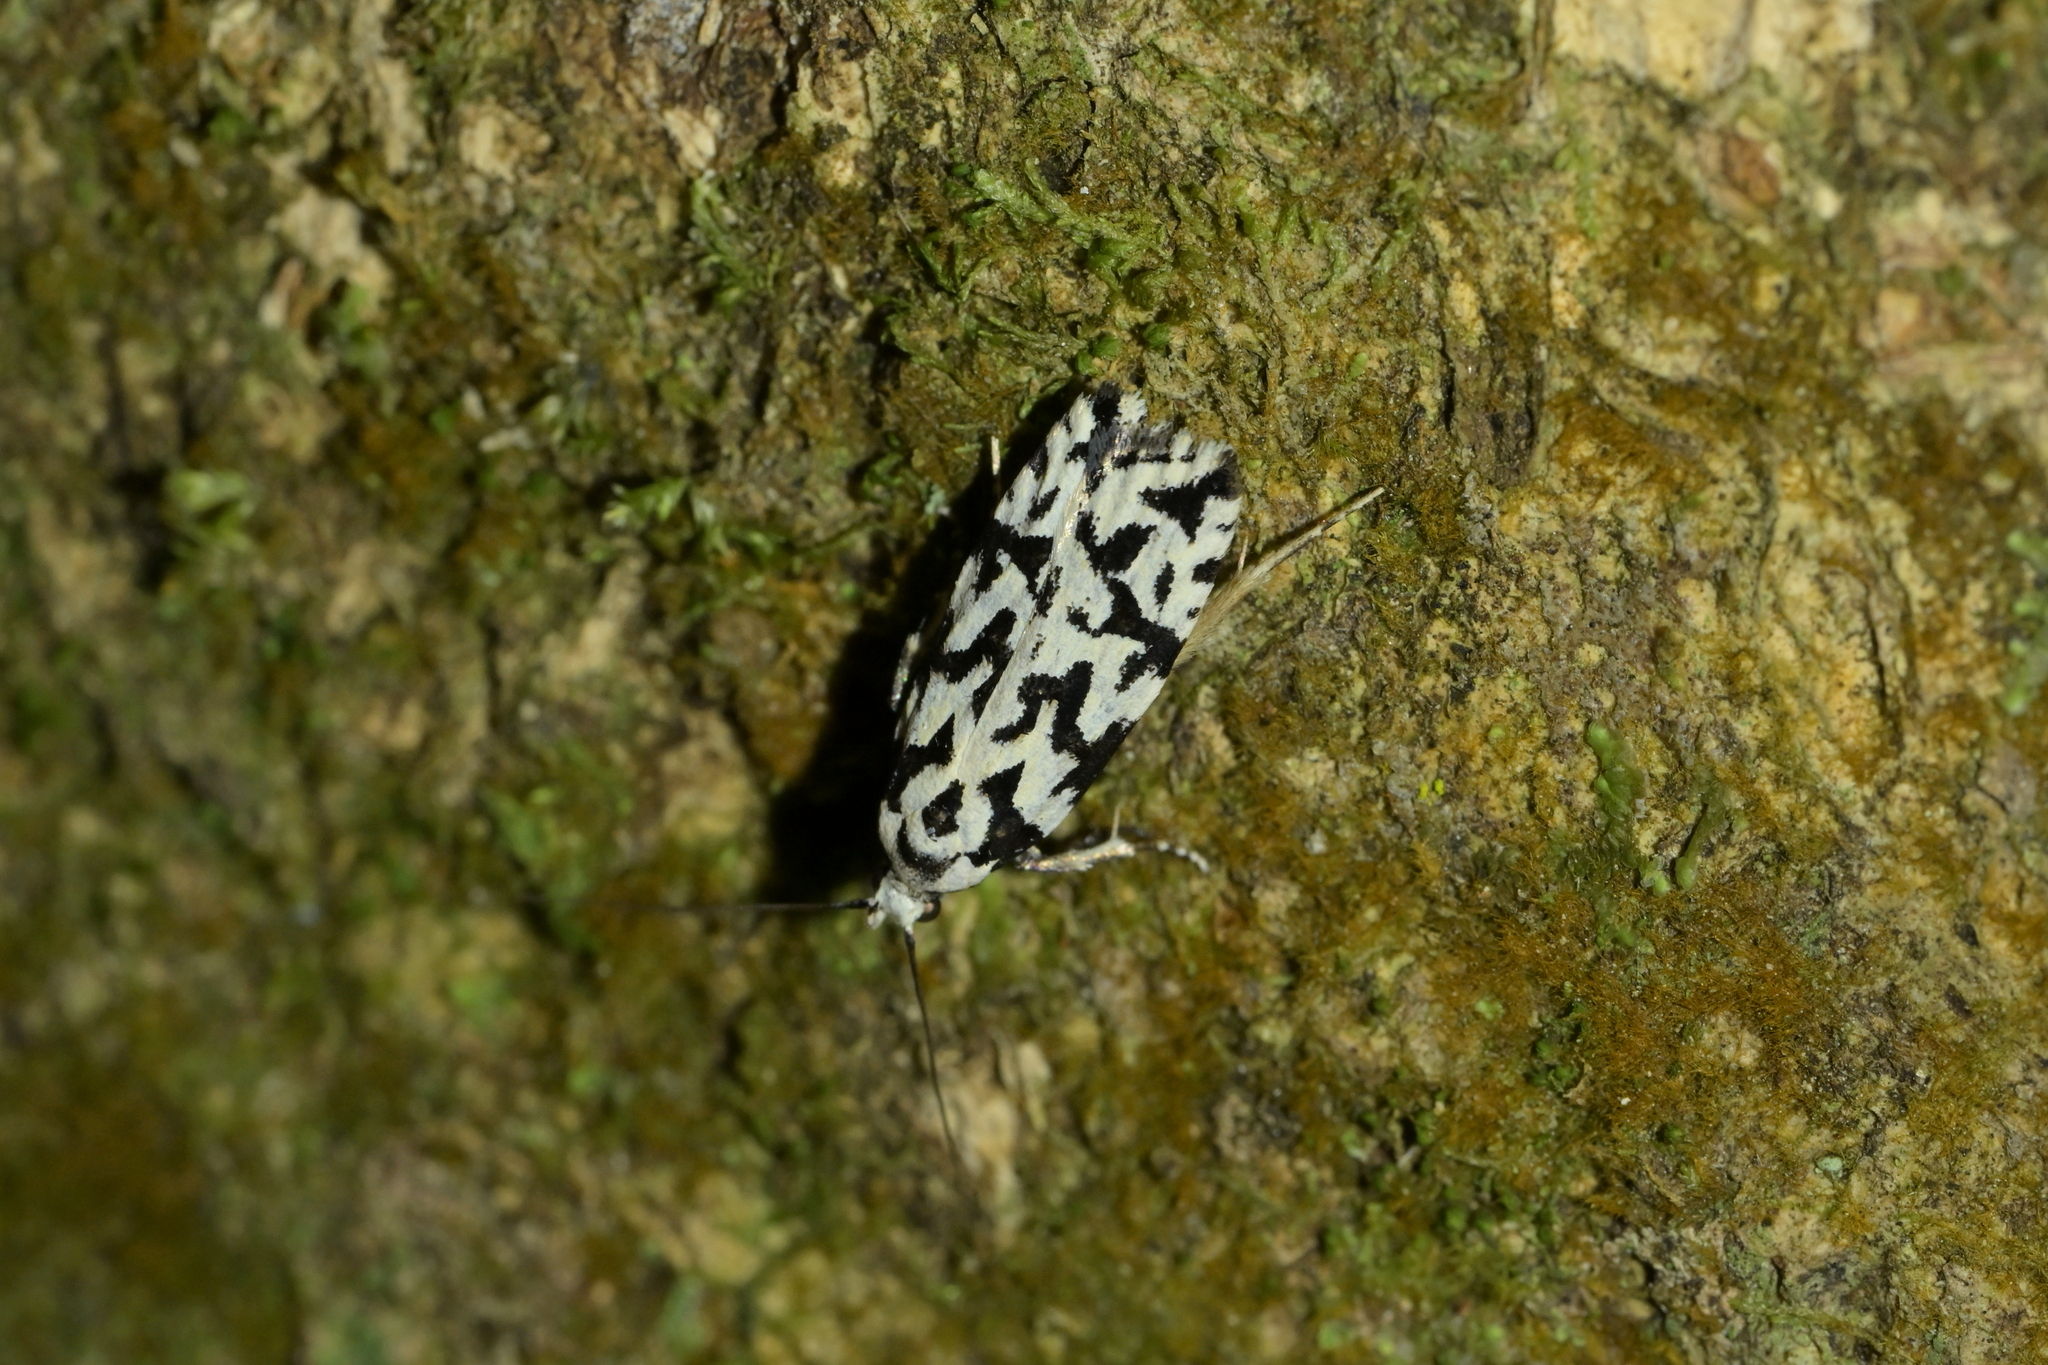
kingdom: Animalia
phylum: Arthropoda
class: Insecta
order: Lepidoptera
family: Oecophoridae
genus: Izatha
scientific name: Izatha
